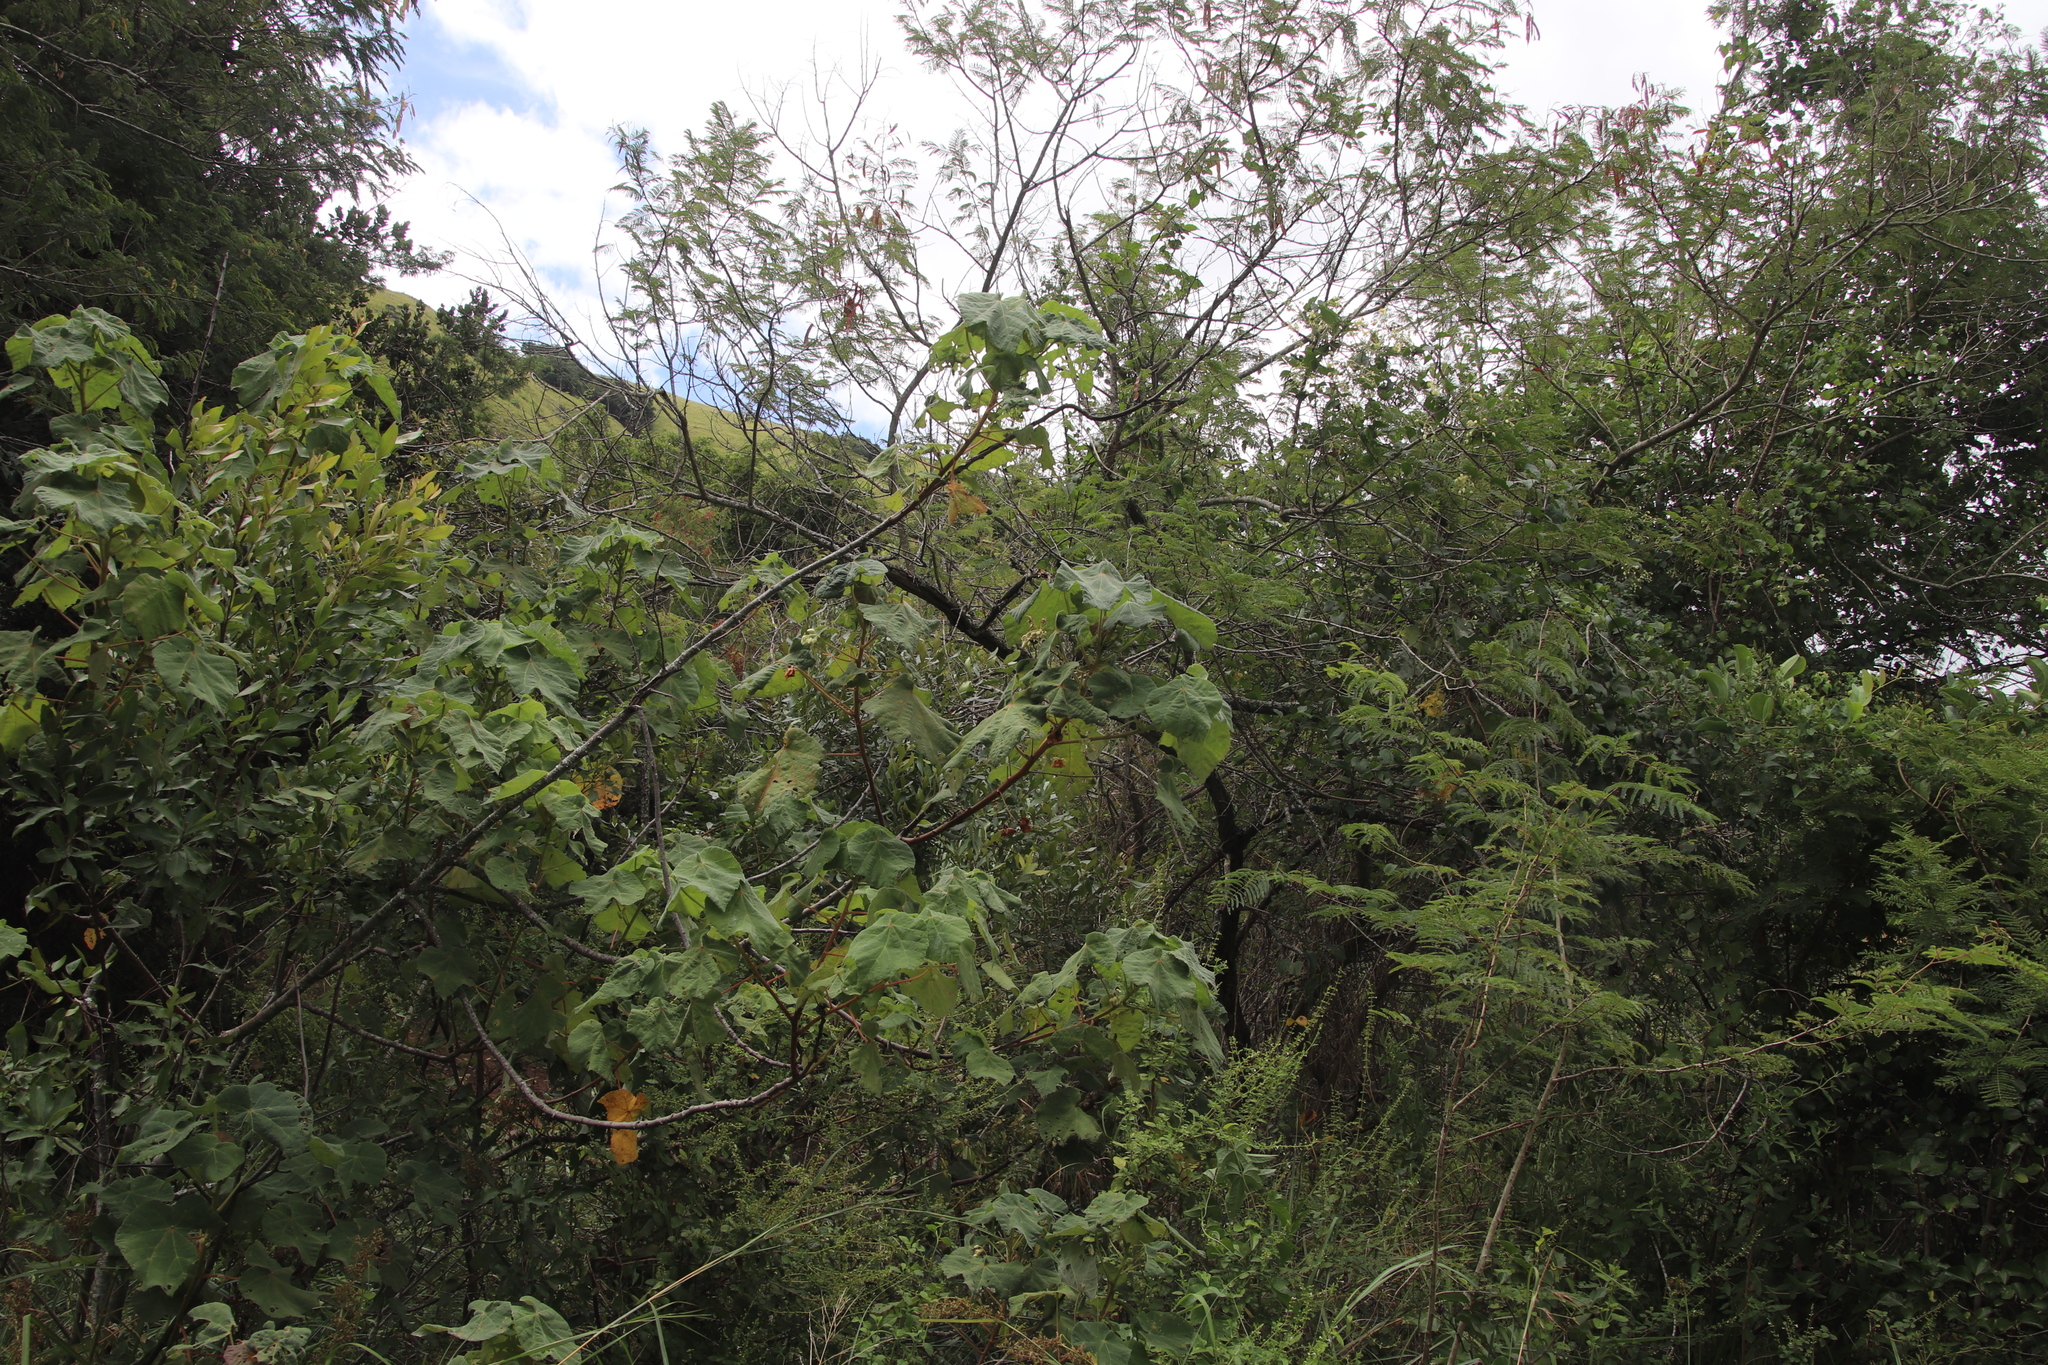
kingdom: Plantae
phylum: Tracheophyta
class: Magnoliopsida
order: Malvales
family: Malvaceae
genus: Dombeya
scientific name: Dombeya burgessiae
